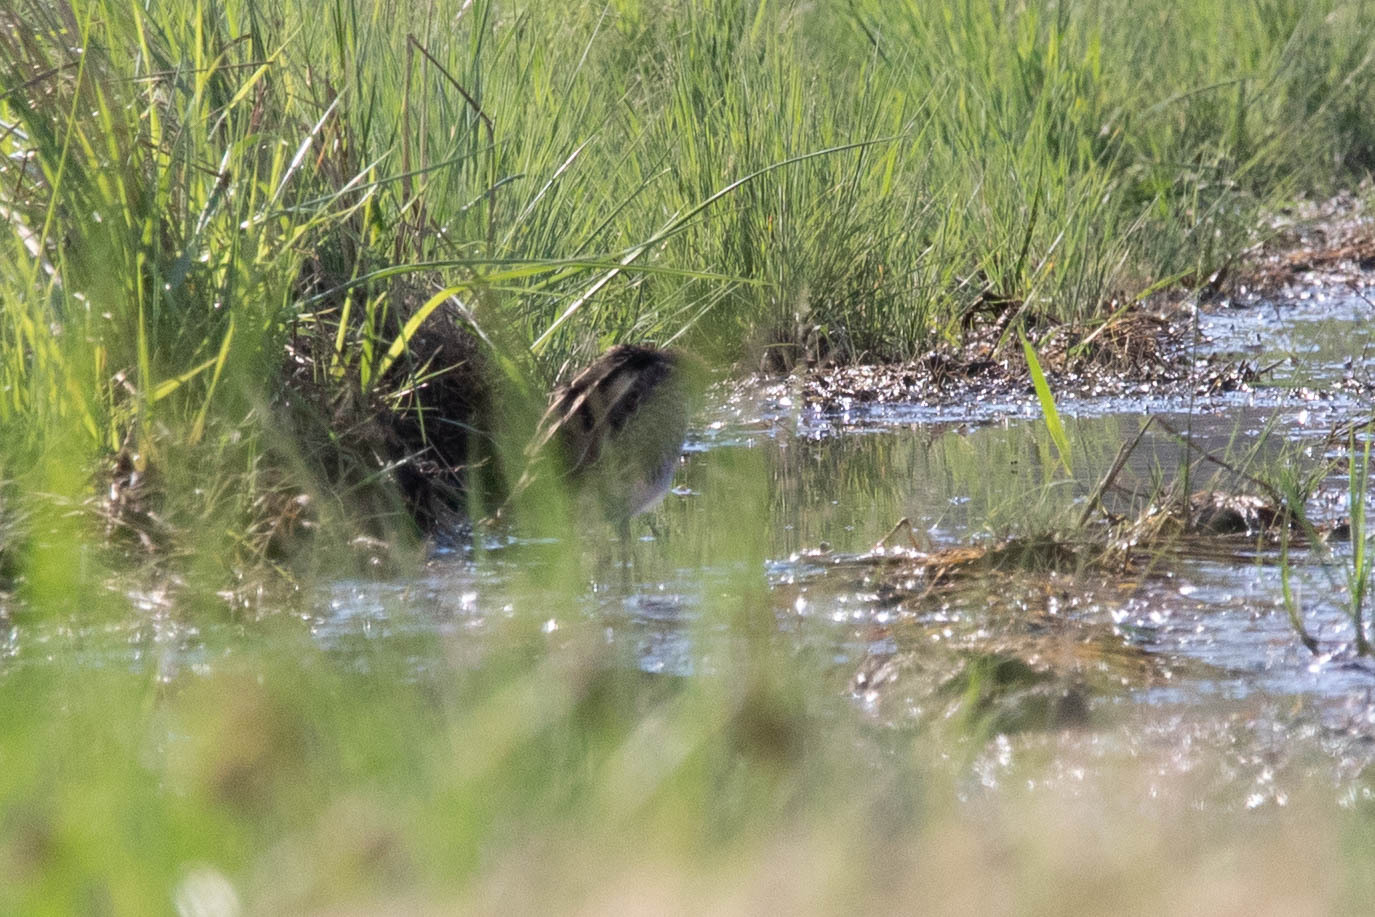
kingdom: Animalia
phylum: Chordata
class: Aves
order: Charadriiformes
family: Scolopacidae
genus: Gallinago
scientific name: Gallinago delicata
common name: Wilson's snipe
